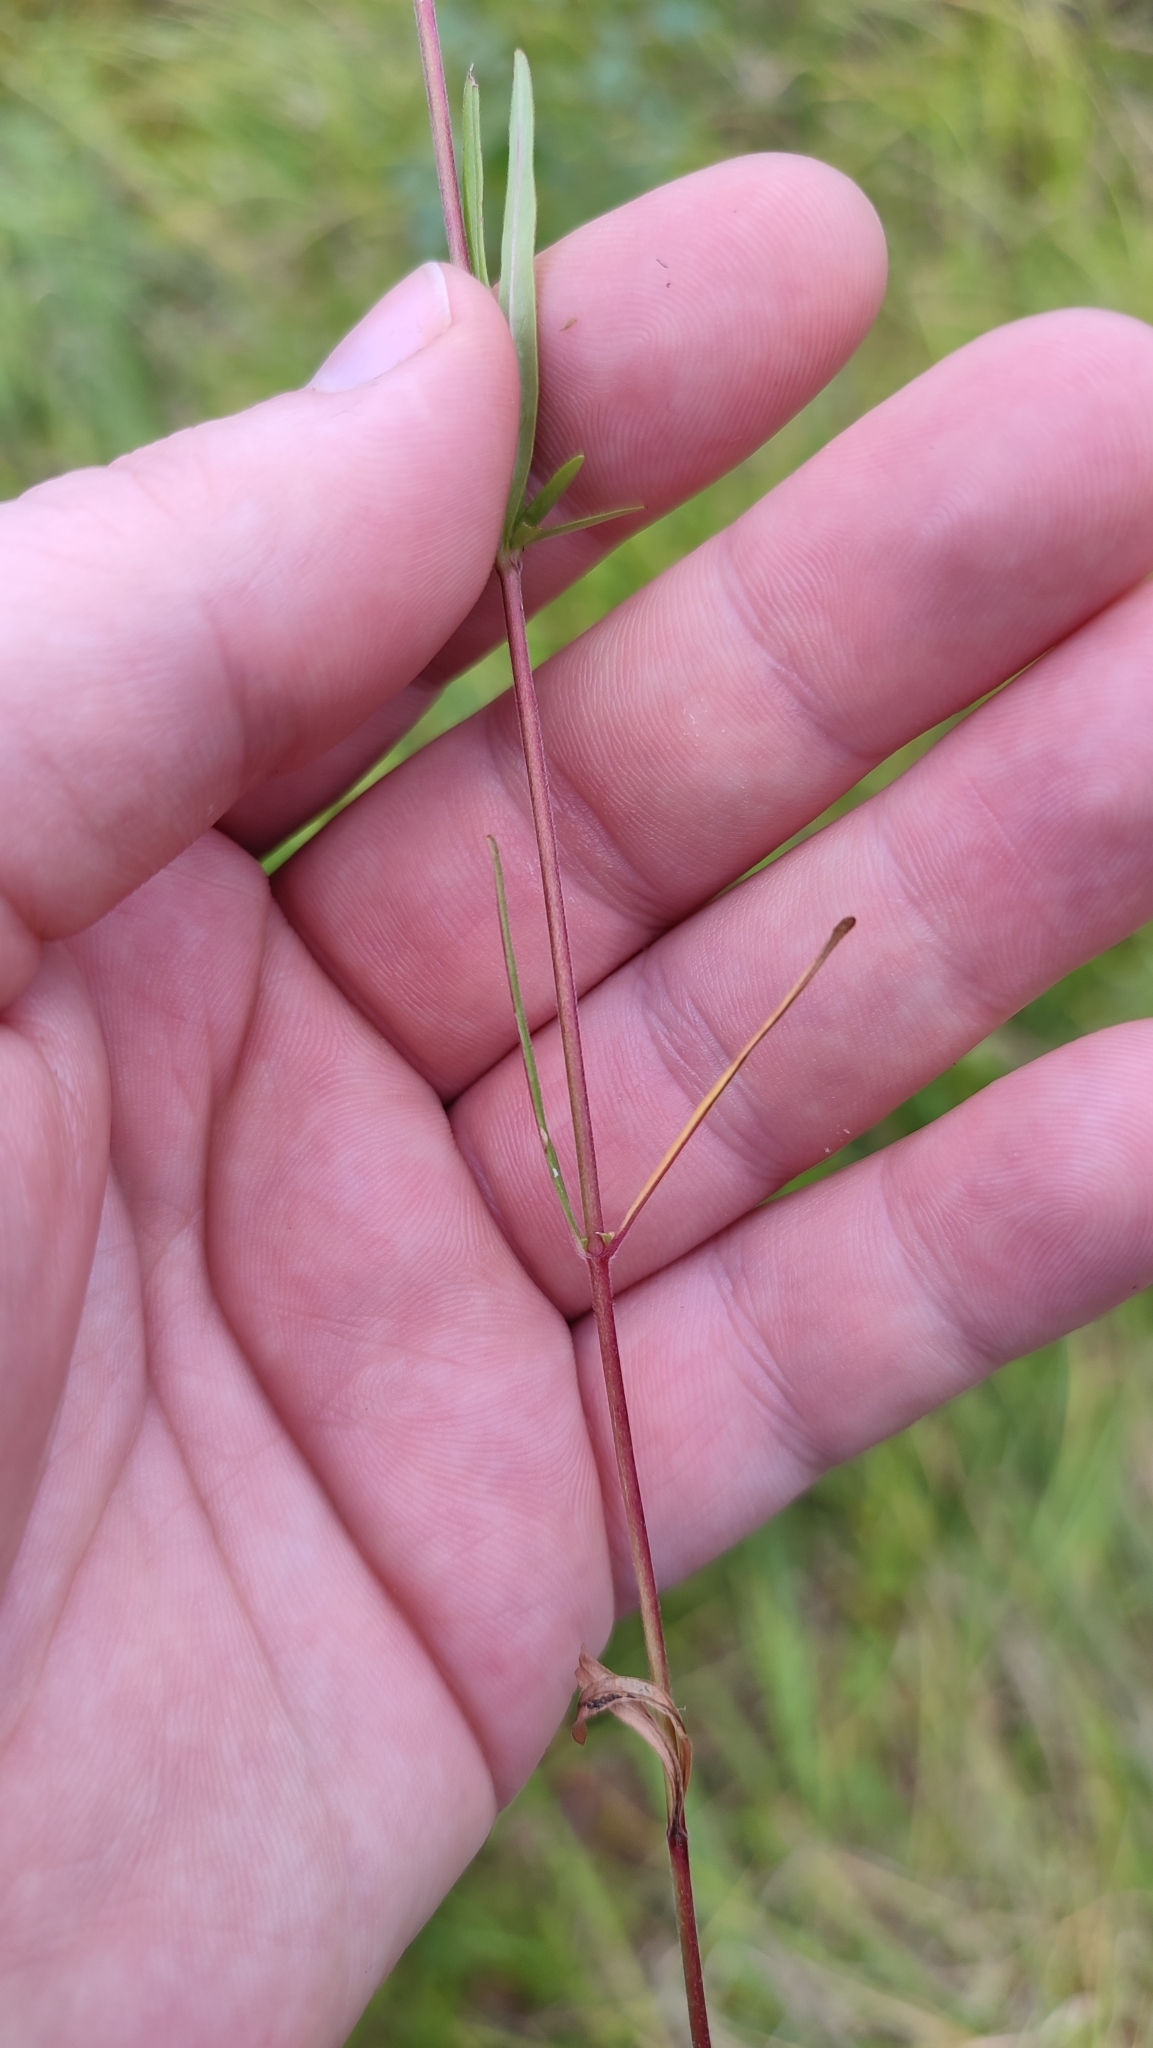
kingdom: Plantae
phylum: Tracheophyta
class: Magnoliopsida
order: Myrtales
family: Onagraceae
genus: Epilobium
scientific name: Epilobium palustre
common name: Marsh willowherb
